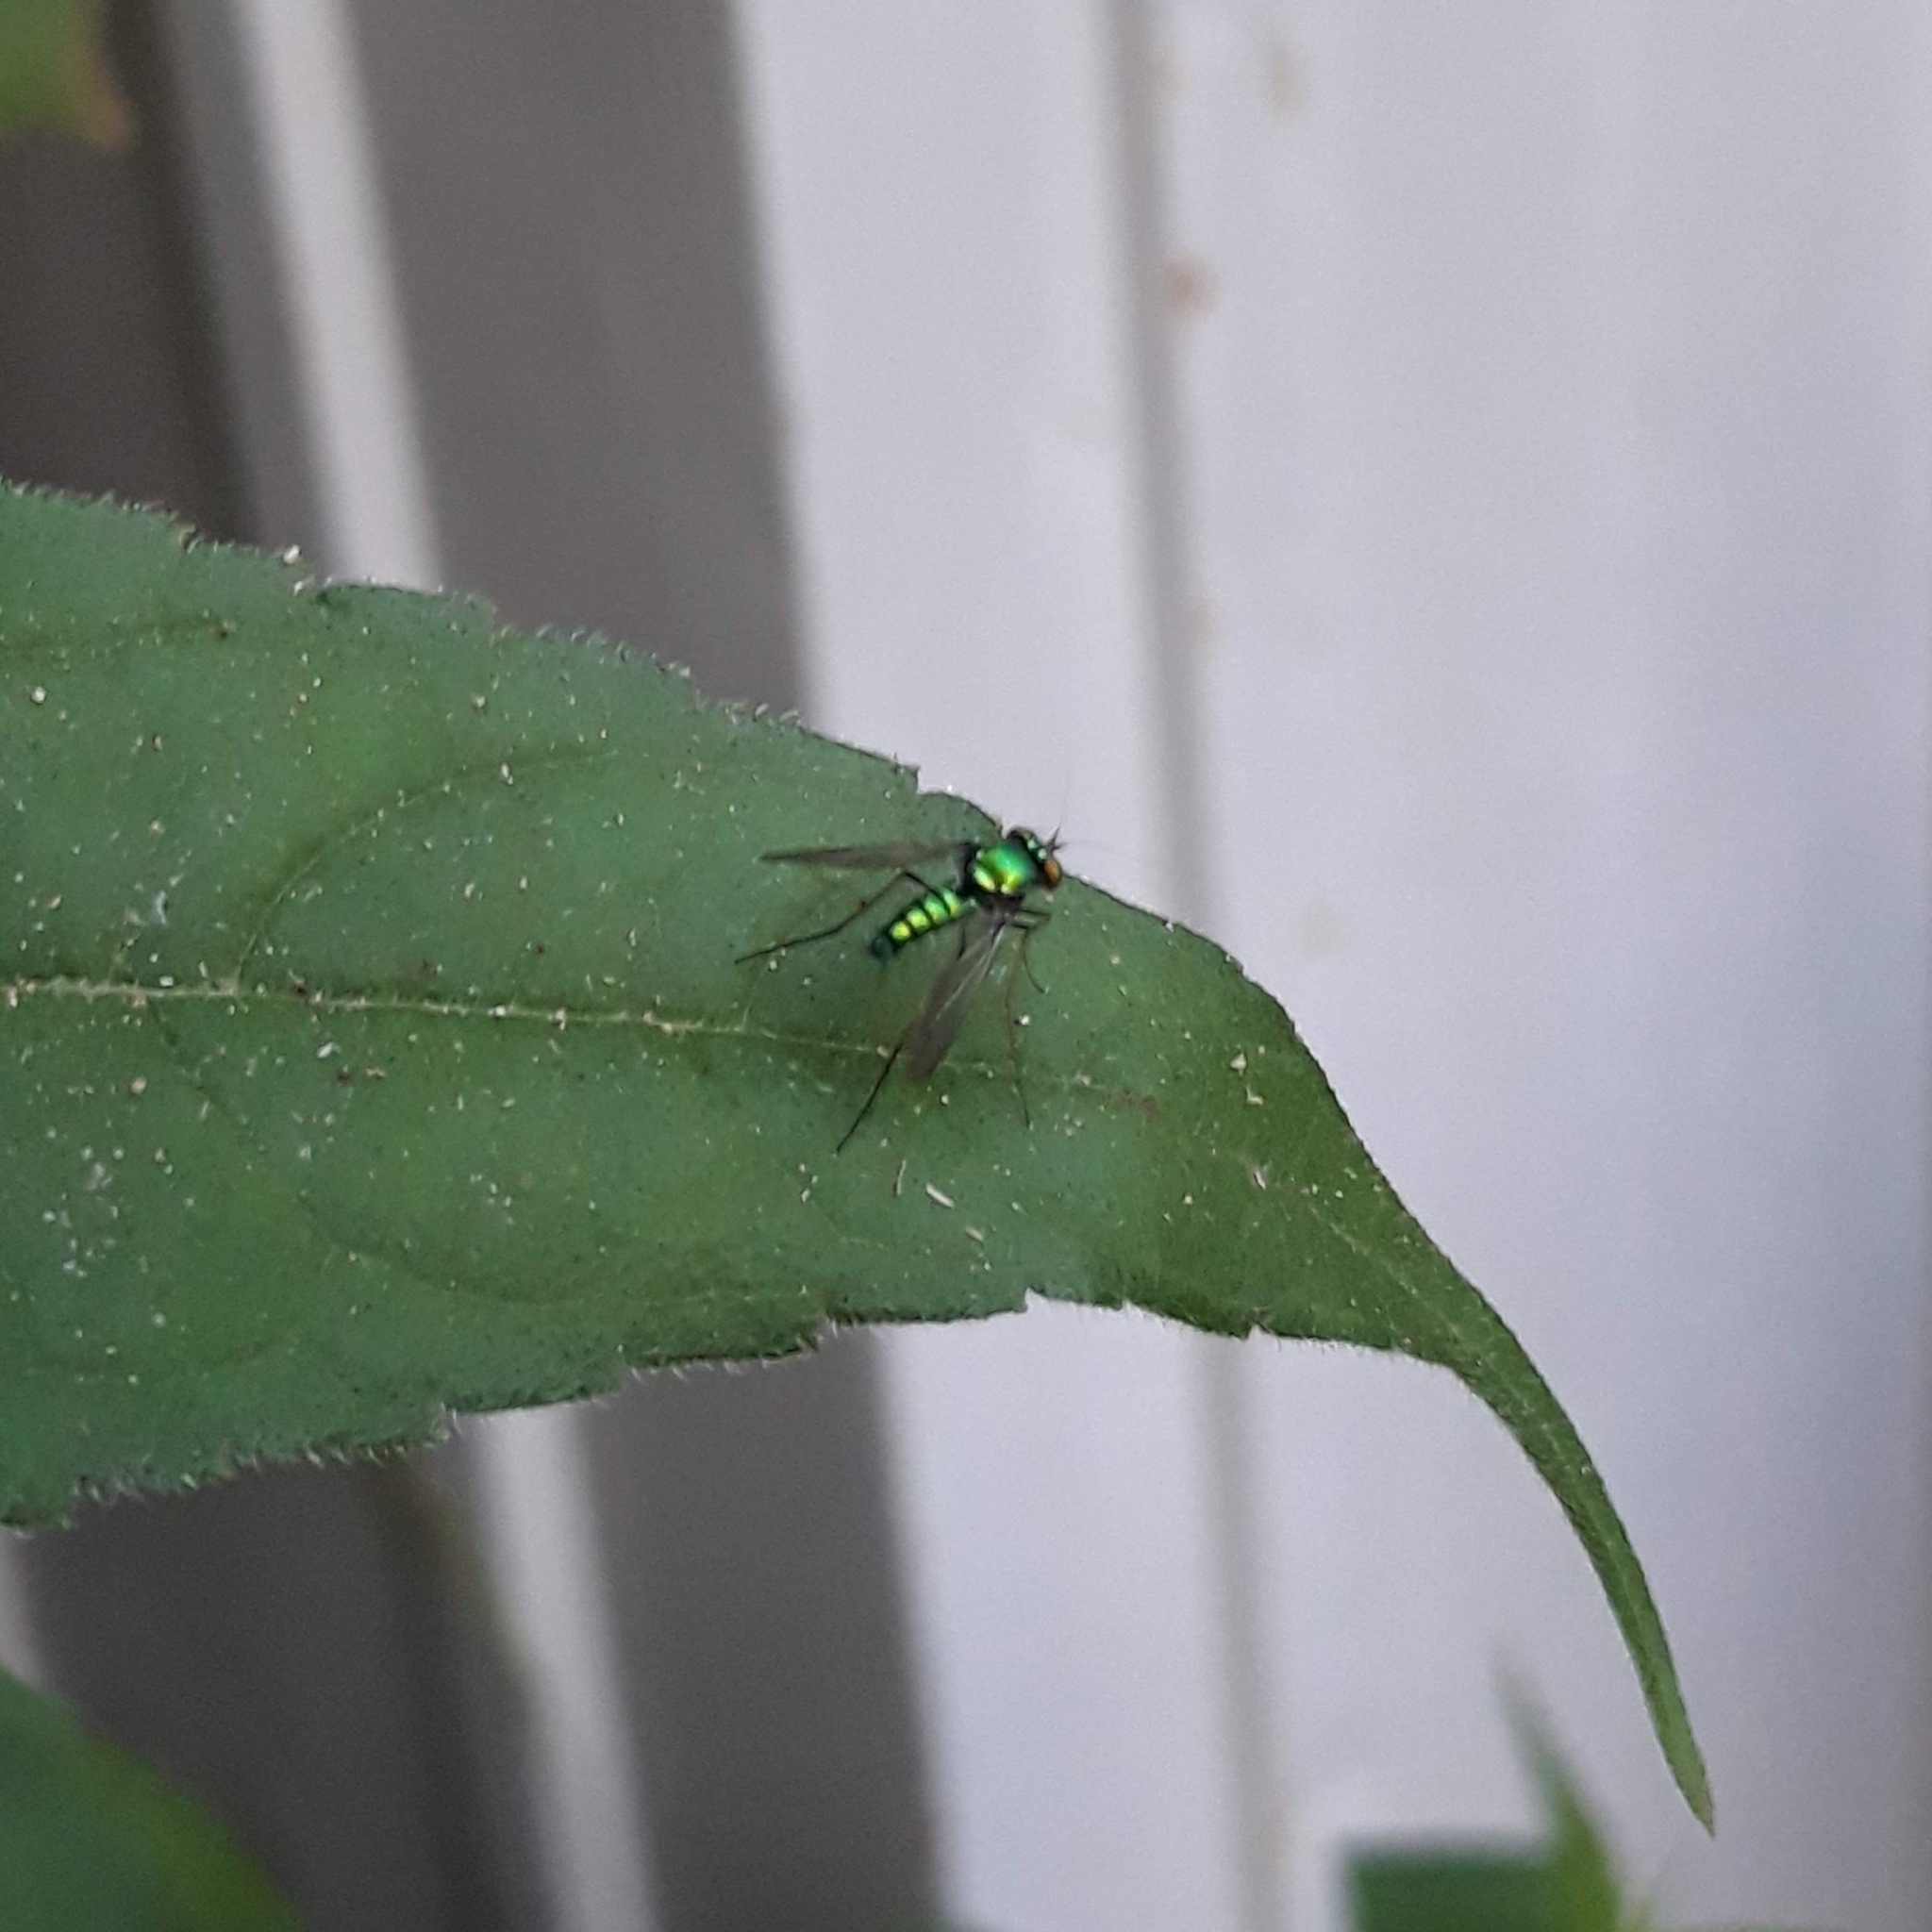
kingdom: Animalia
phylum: Arthropoda
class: Insecta
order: Diptera
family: Dolichopodidae
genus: Condylostylus
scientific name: Condylostylus comatus
